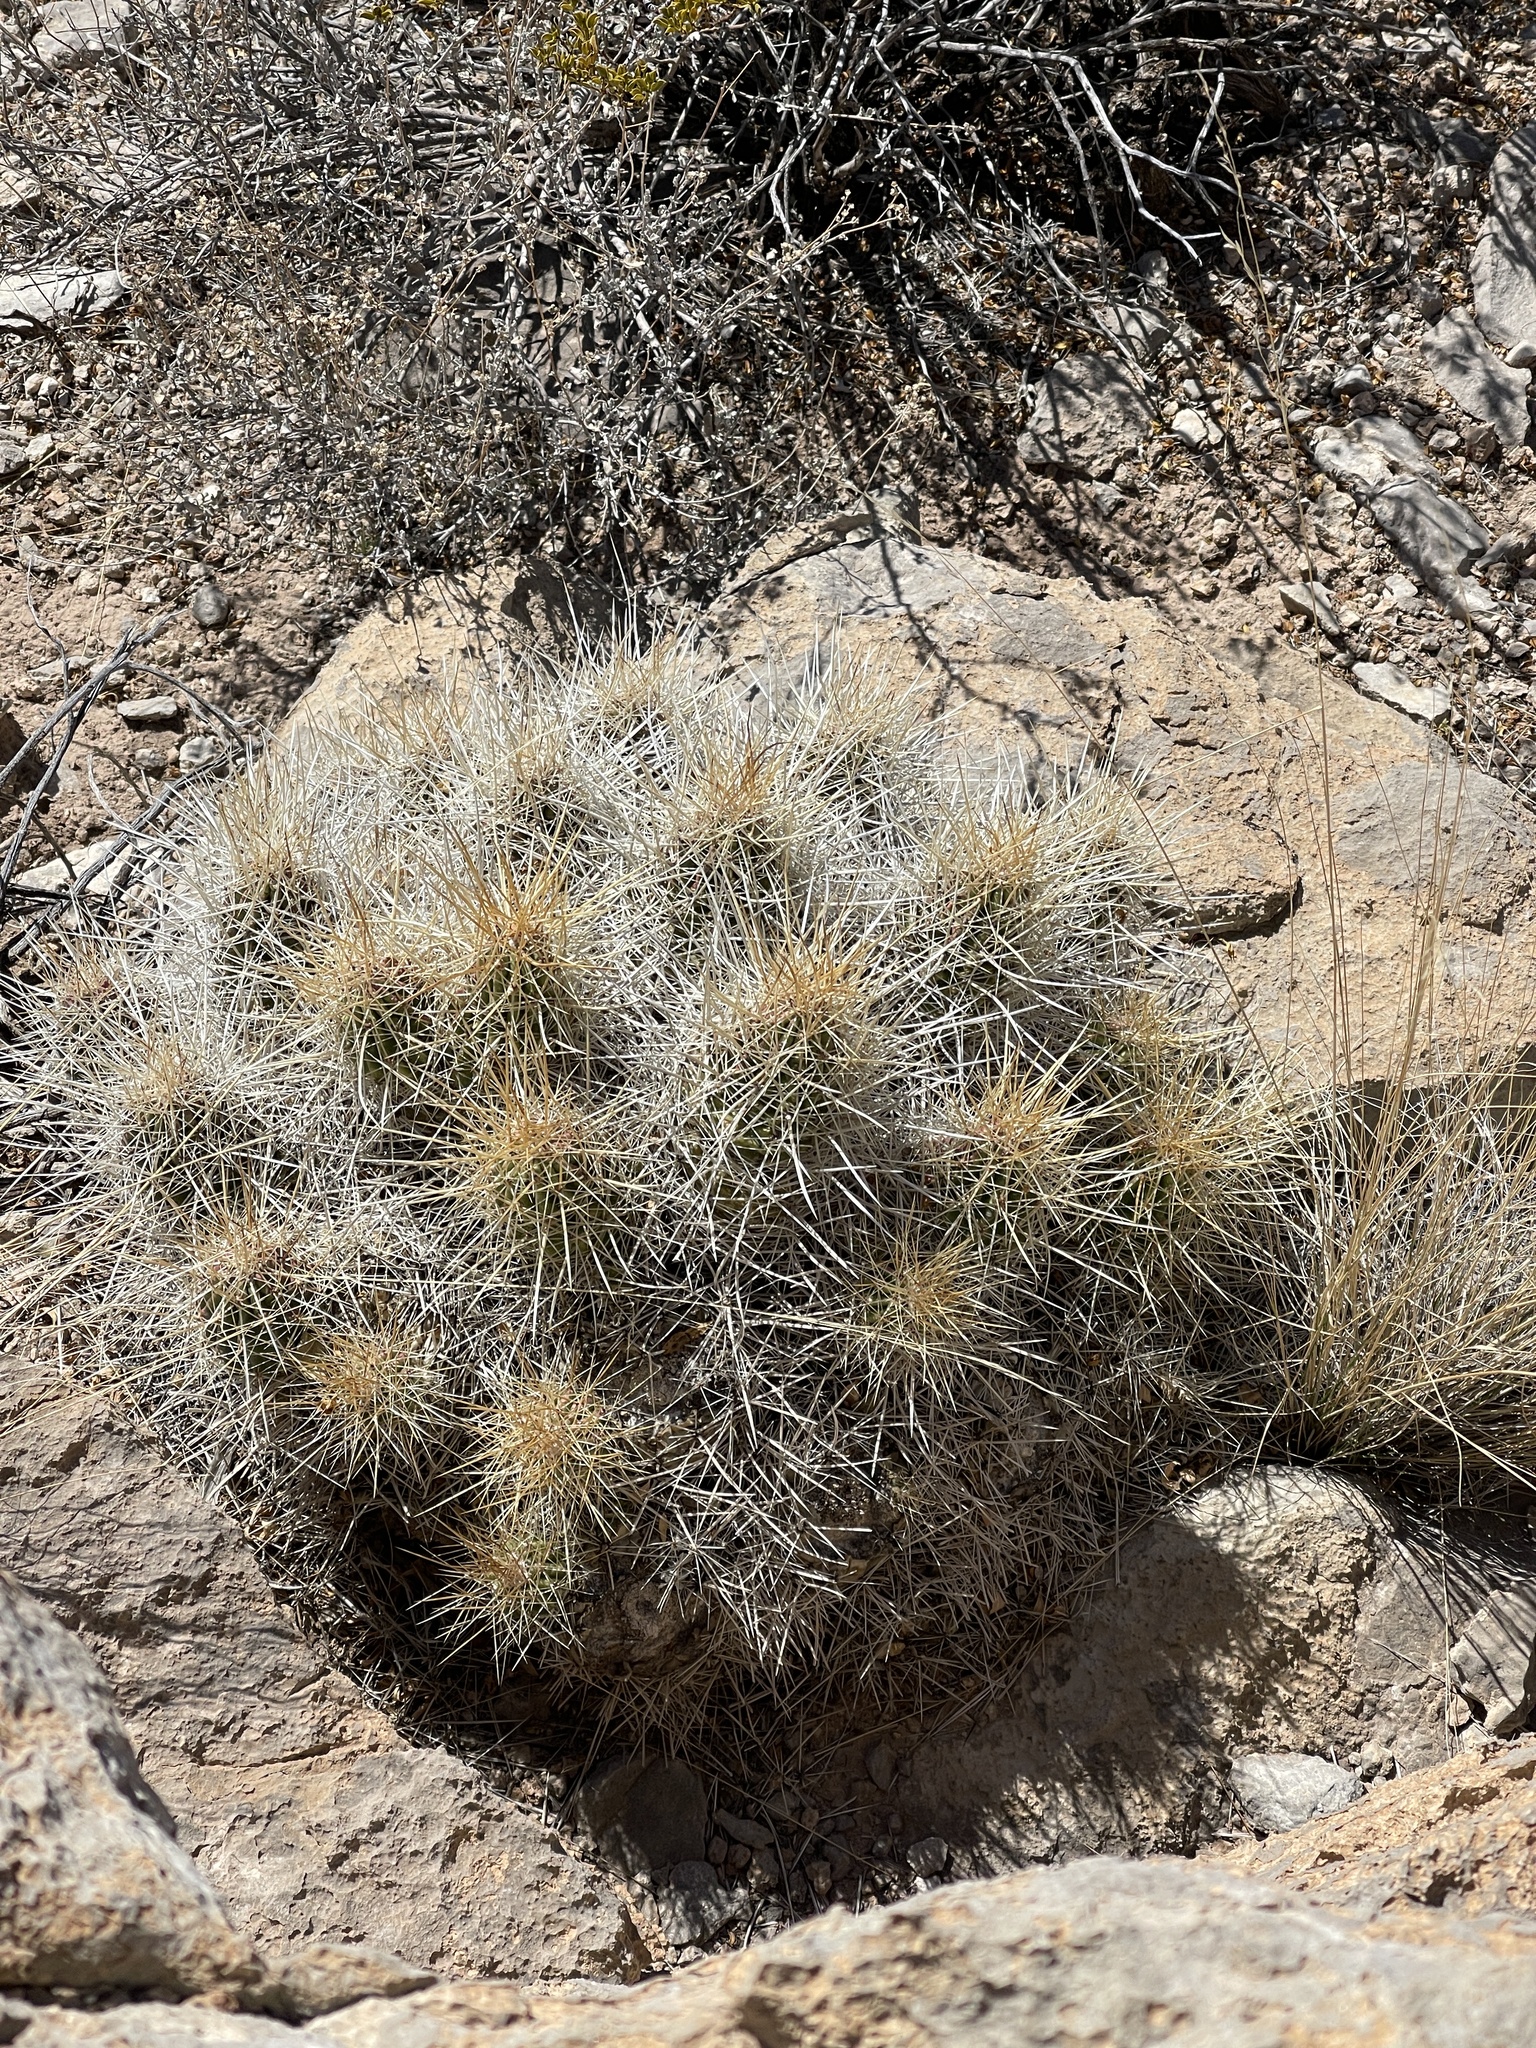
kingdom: Plantae
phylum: Tracheophyta
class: Magnoliopsida
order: Caryophyllales
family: Cactaceae
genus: Echinocereus
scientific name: Echinocereus stramineus
